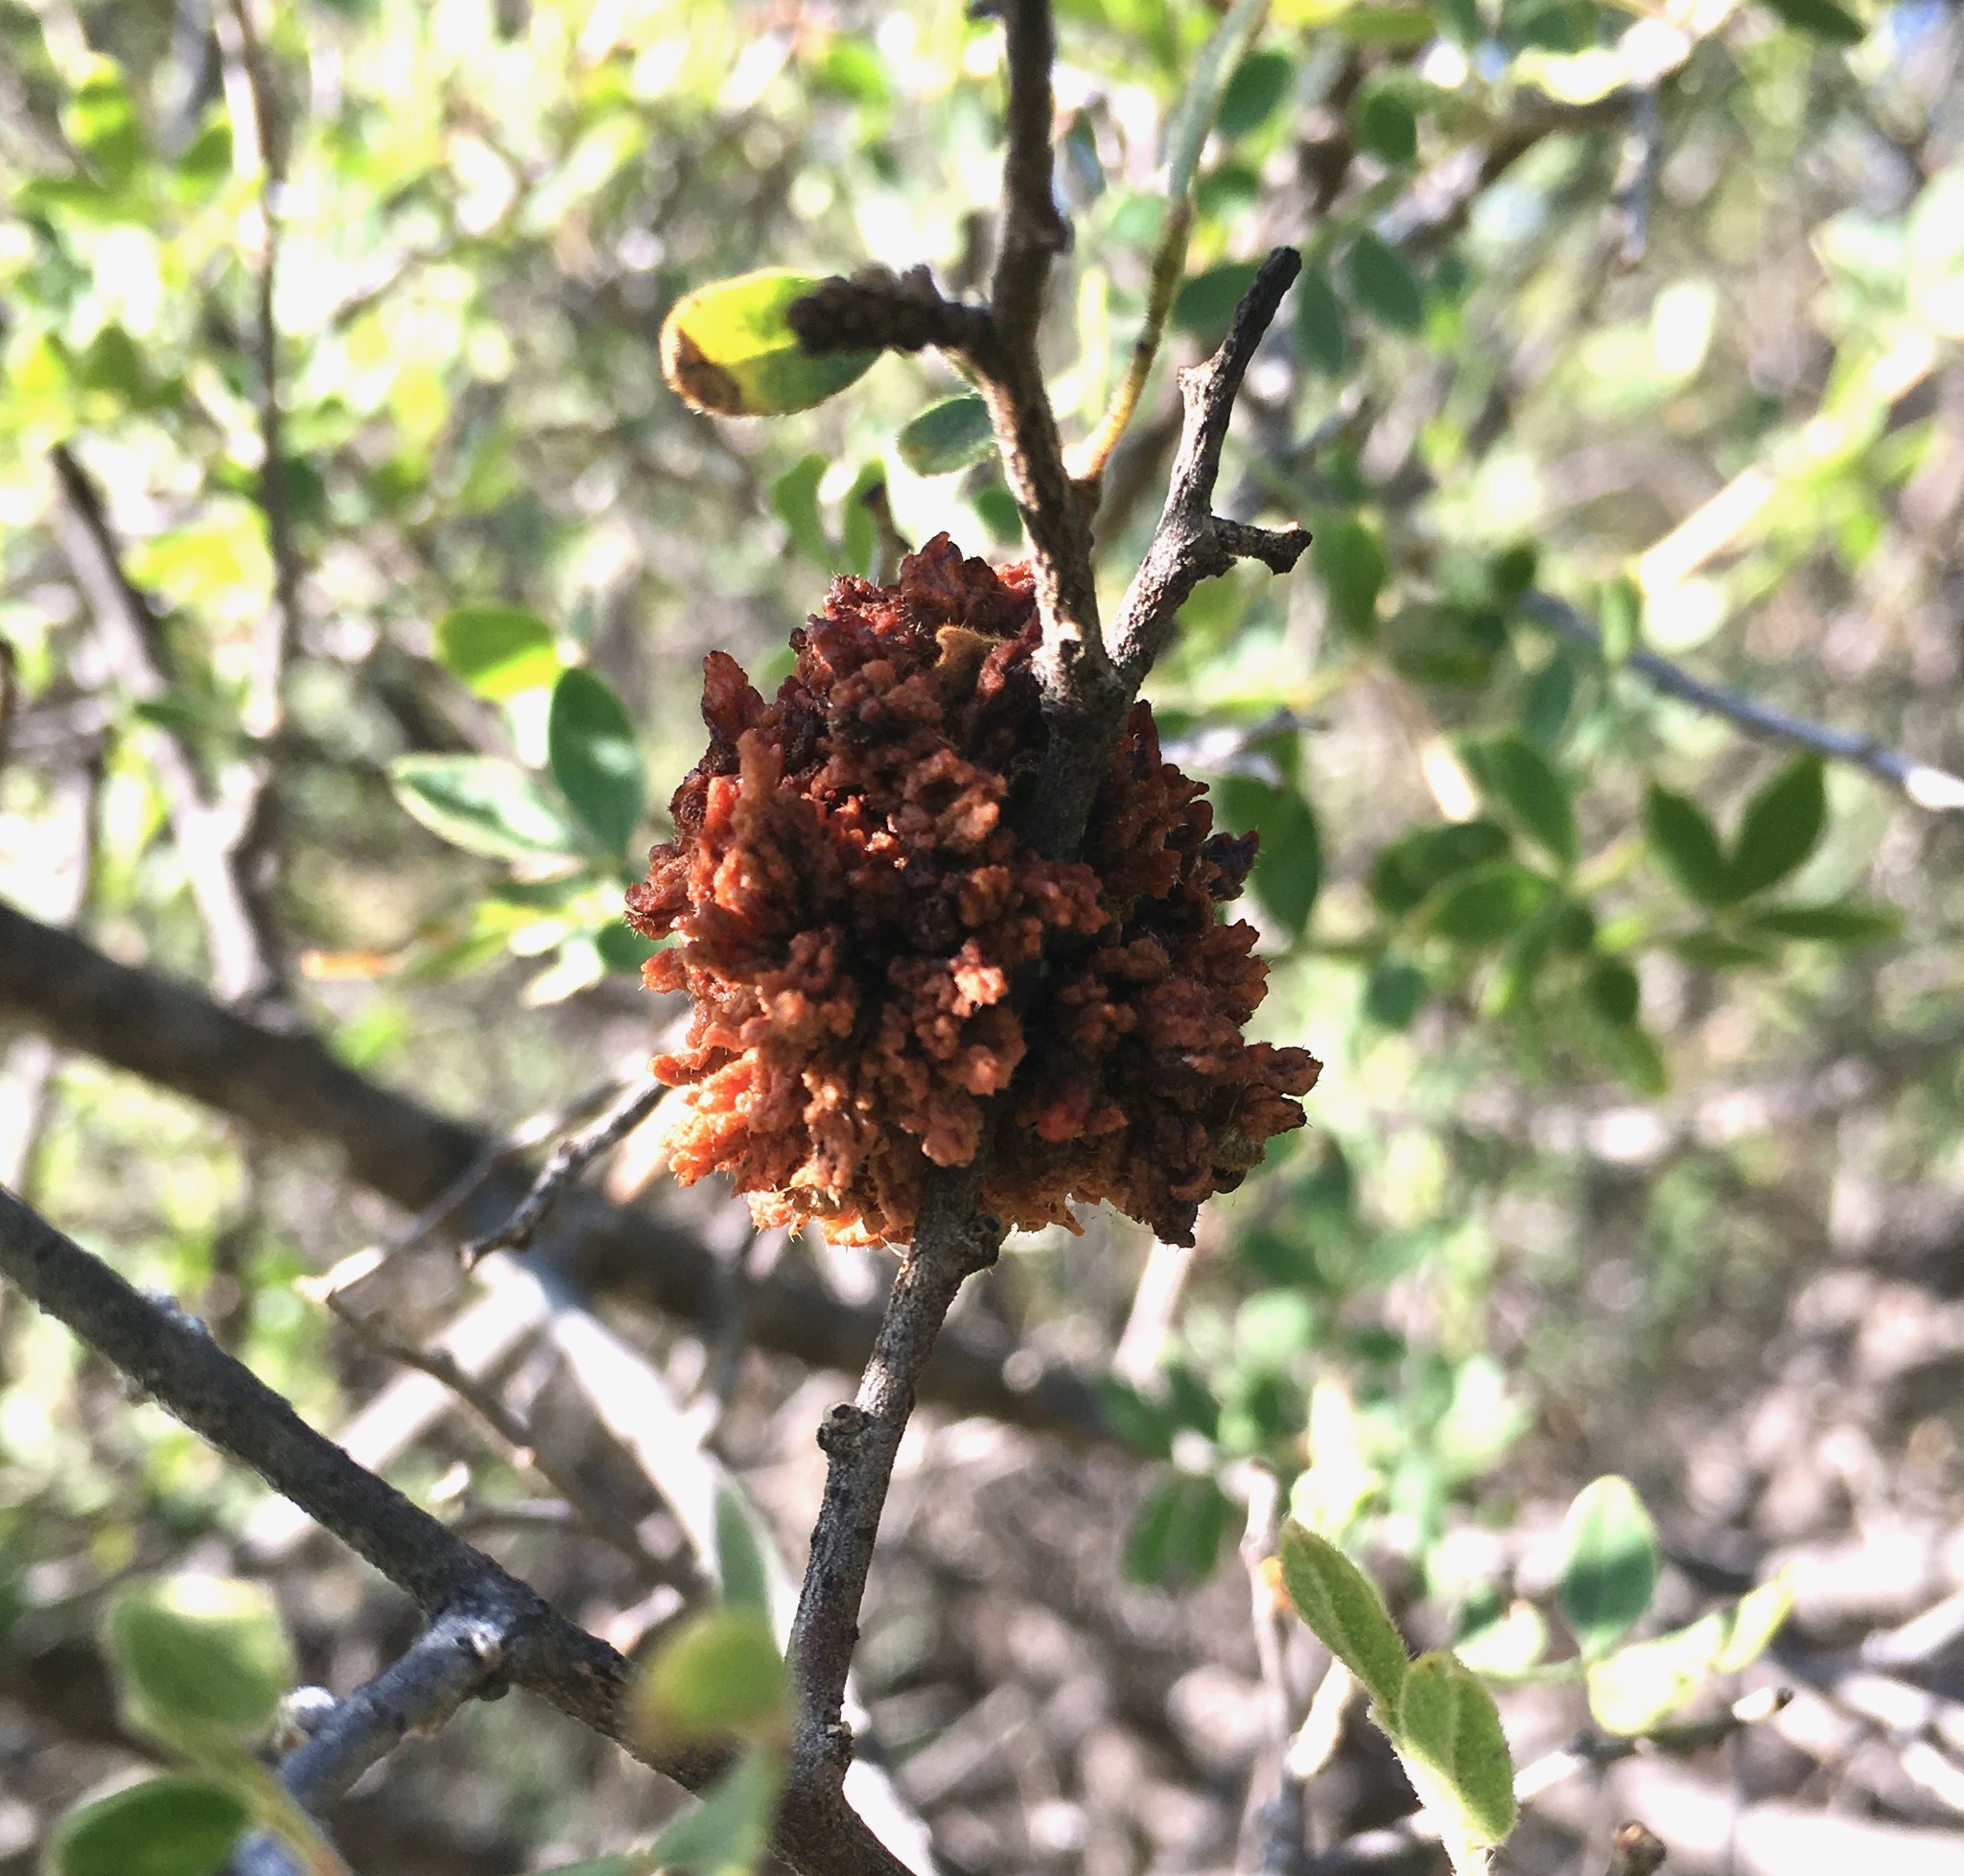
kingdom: Animalia
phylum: Arthropoda
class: Arachnida
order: Trombidiformes
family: Eriophyidae
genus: Aculops
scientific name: Aculops
